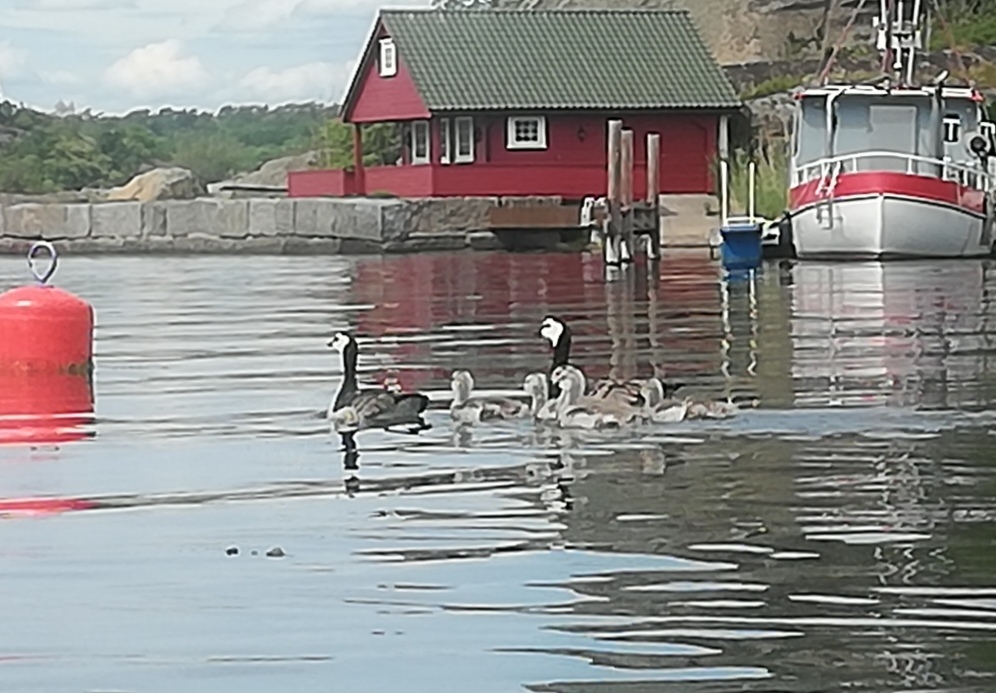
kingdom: Animalia
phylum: Chordata
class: Aves
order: Anseriformes
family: Anatidae
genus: Branta
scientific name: Branta leucopsis
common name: Barnacle goose
